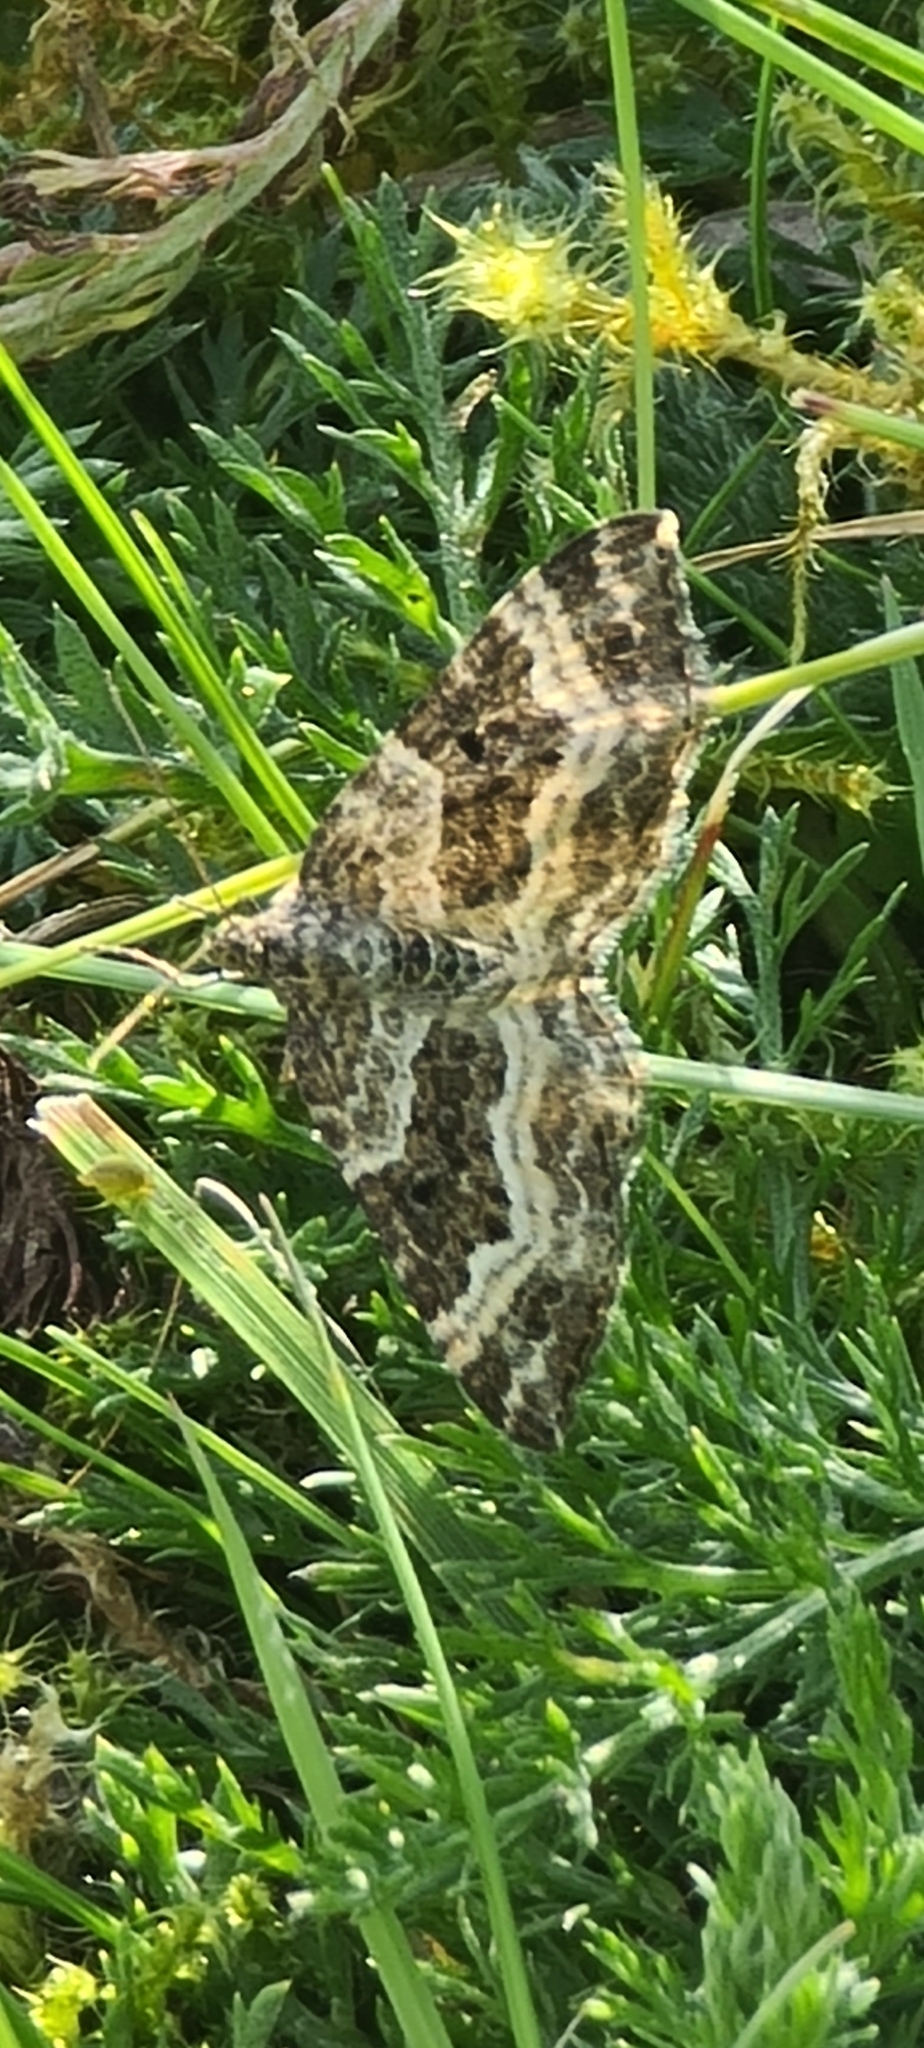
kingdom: Animalia
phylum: Arthropoda
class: Insecta
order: Lepidoptera
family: Geometridae
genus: Epirrhoe
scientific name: Epirrhoe alternata
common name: Common carpet
